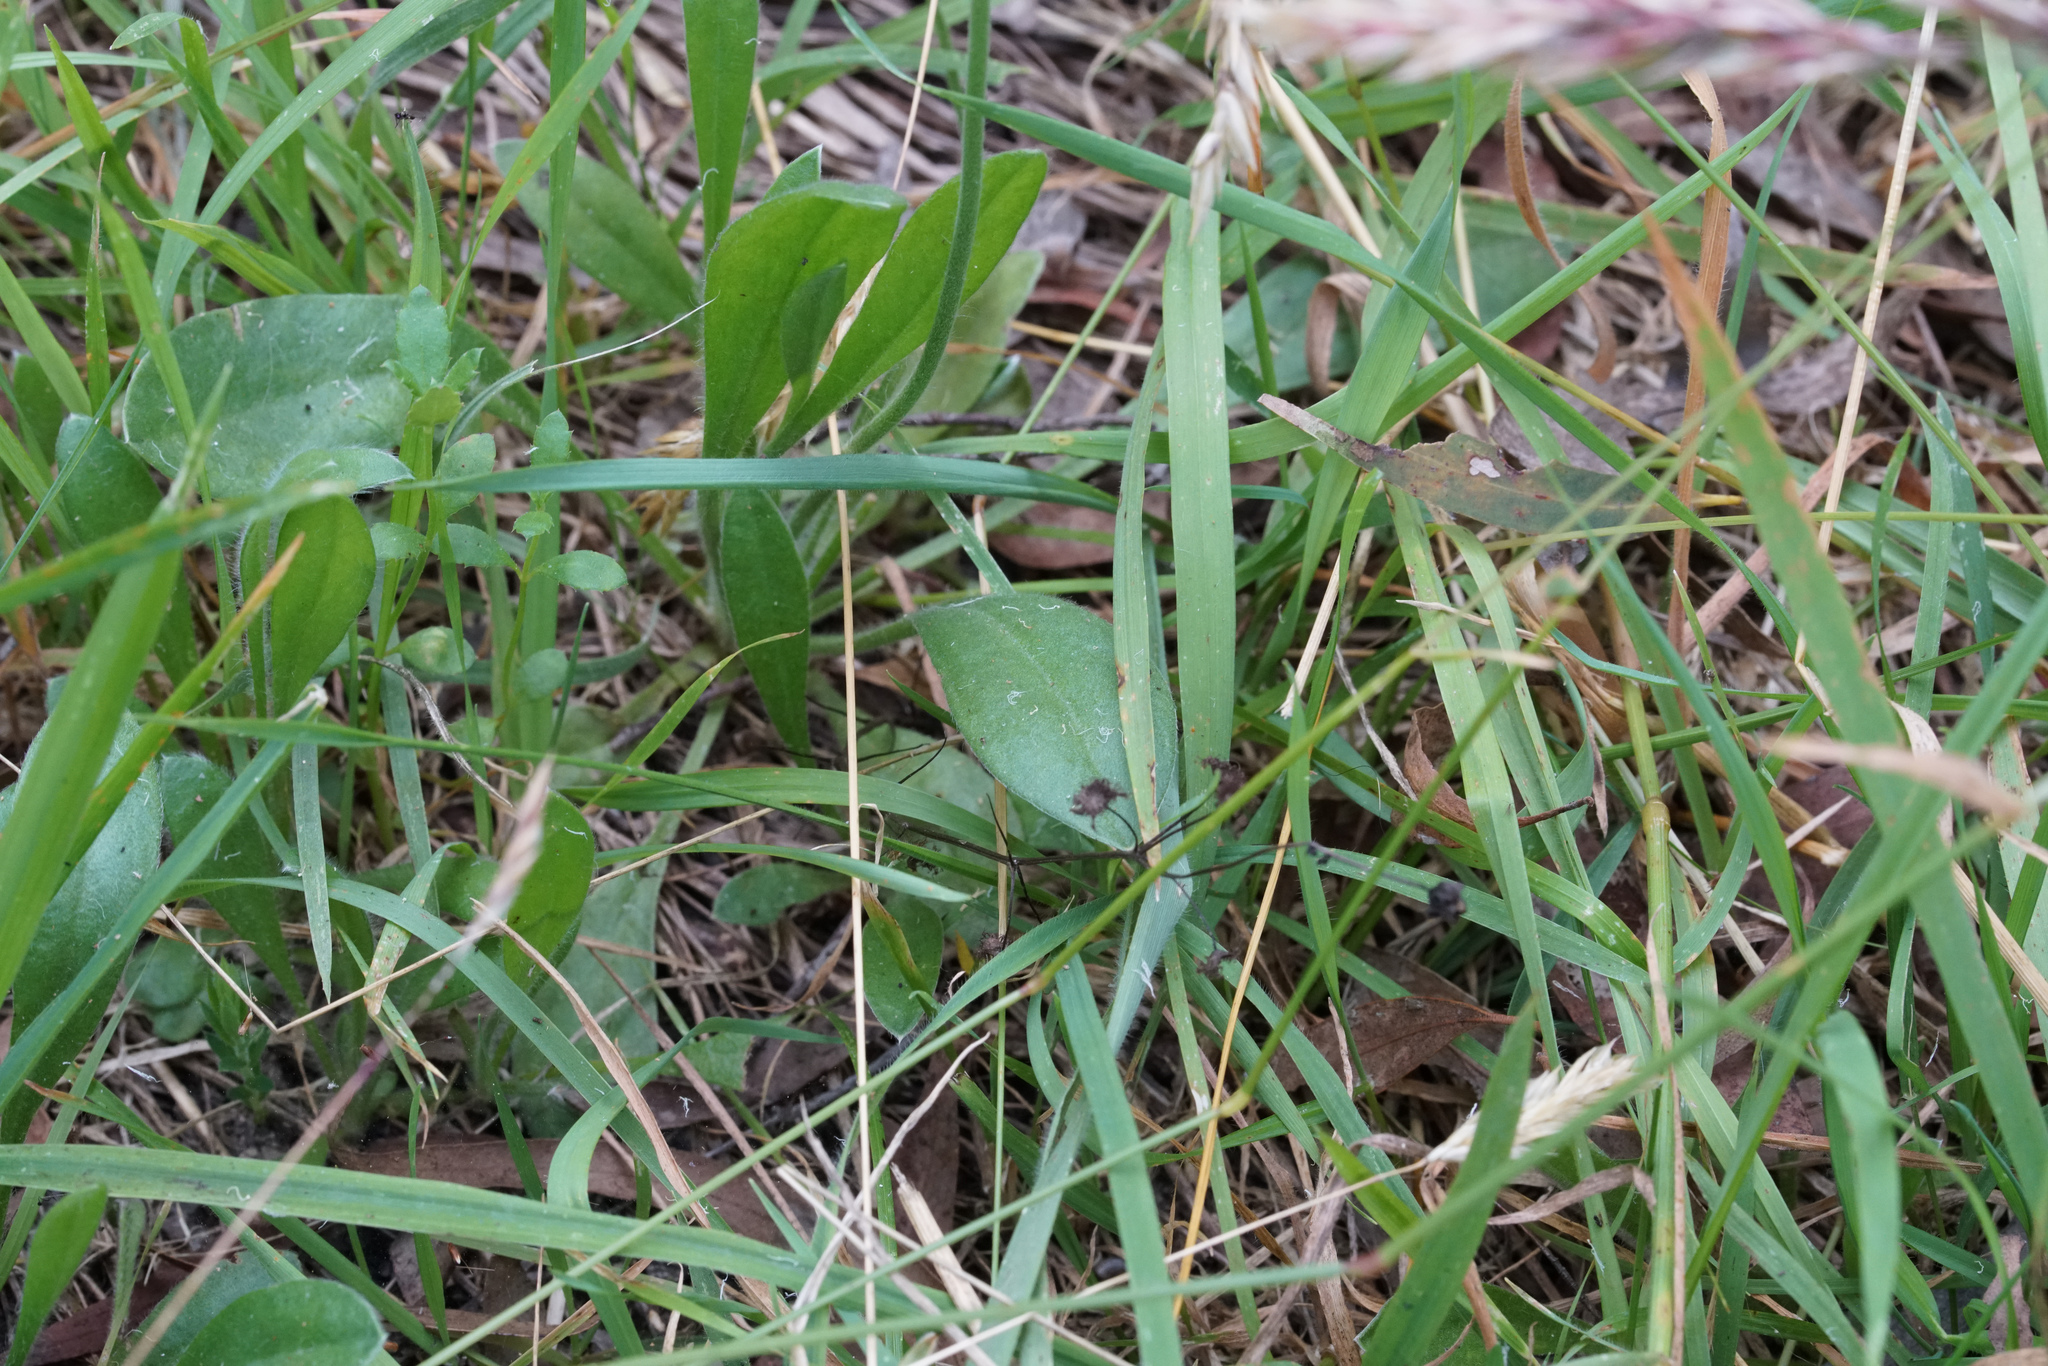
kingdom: Plantae
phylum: Tracheophyta
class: Magnoliopsida
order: Asterales
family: Goodeniaceae
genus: Brunonia
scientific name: Brunonia australis
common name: Blue pincushion
